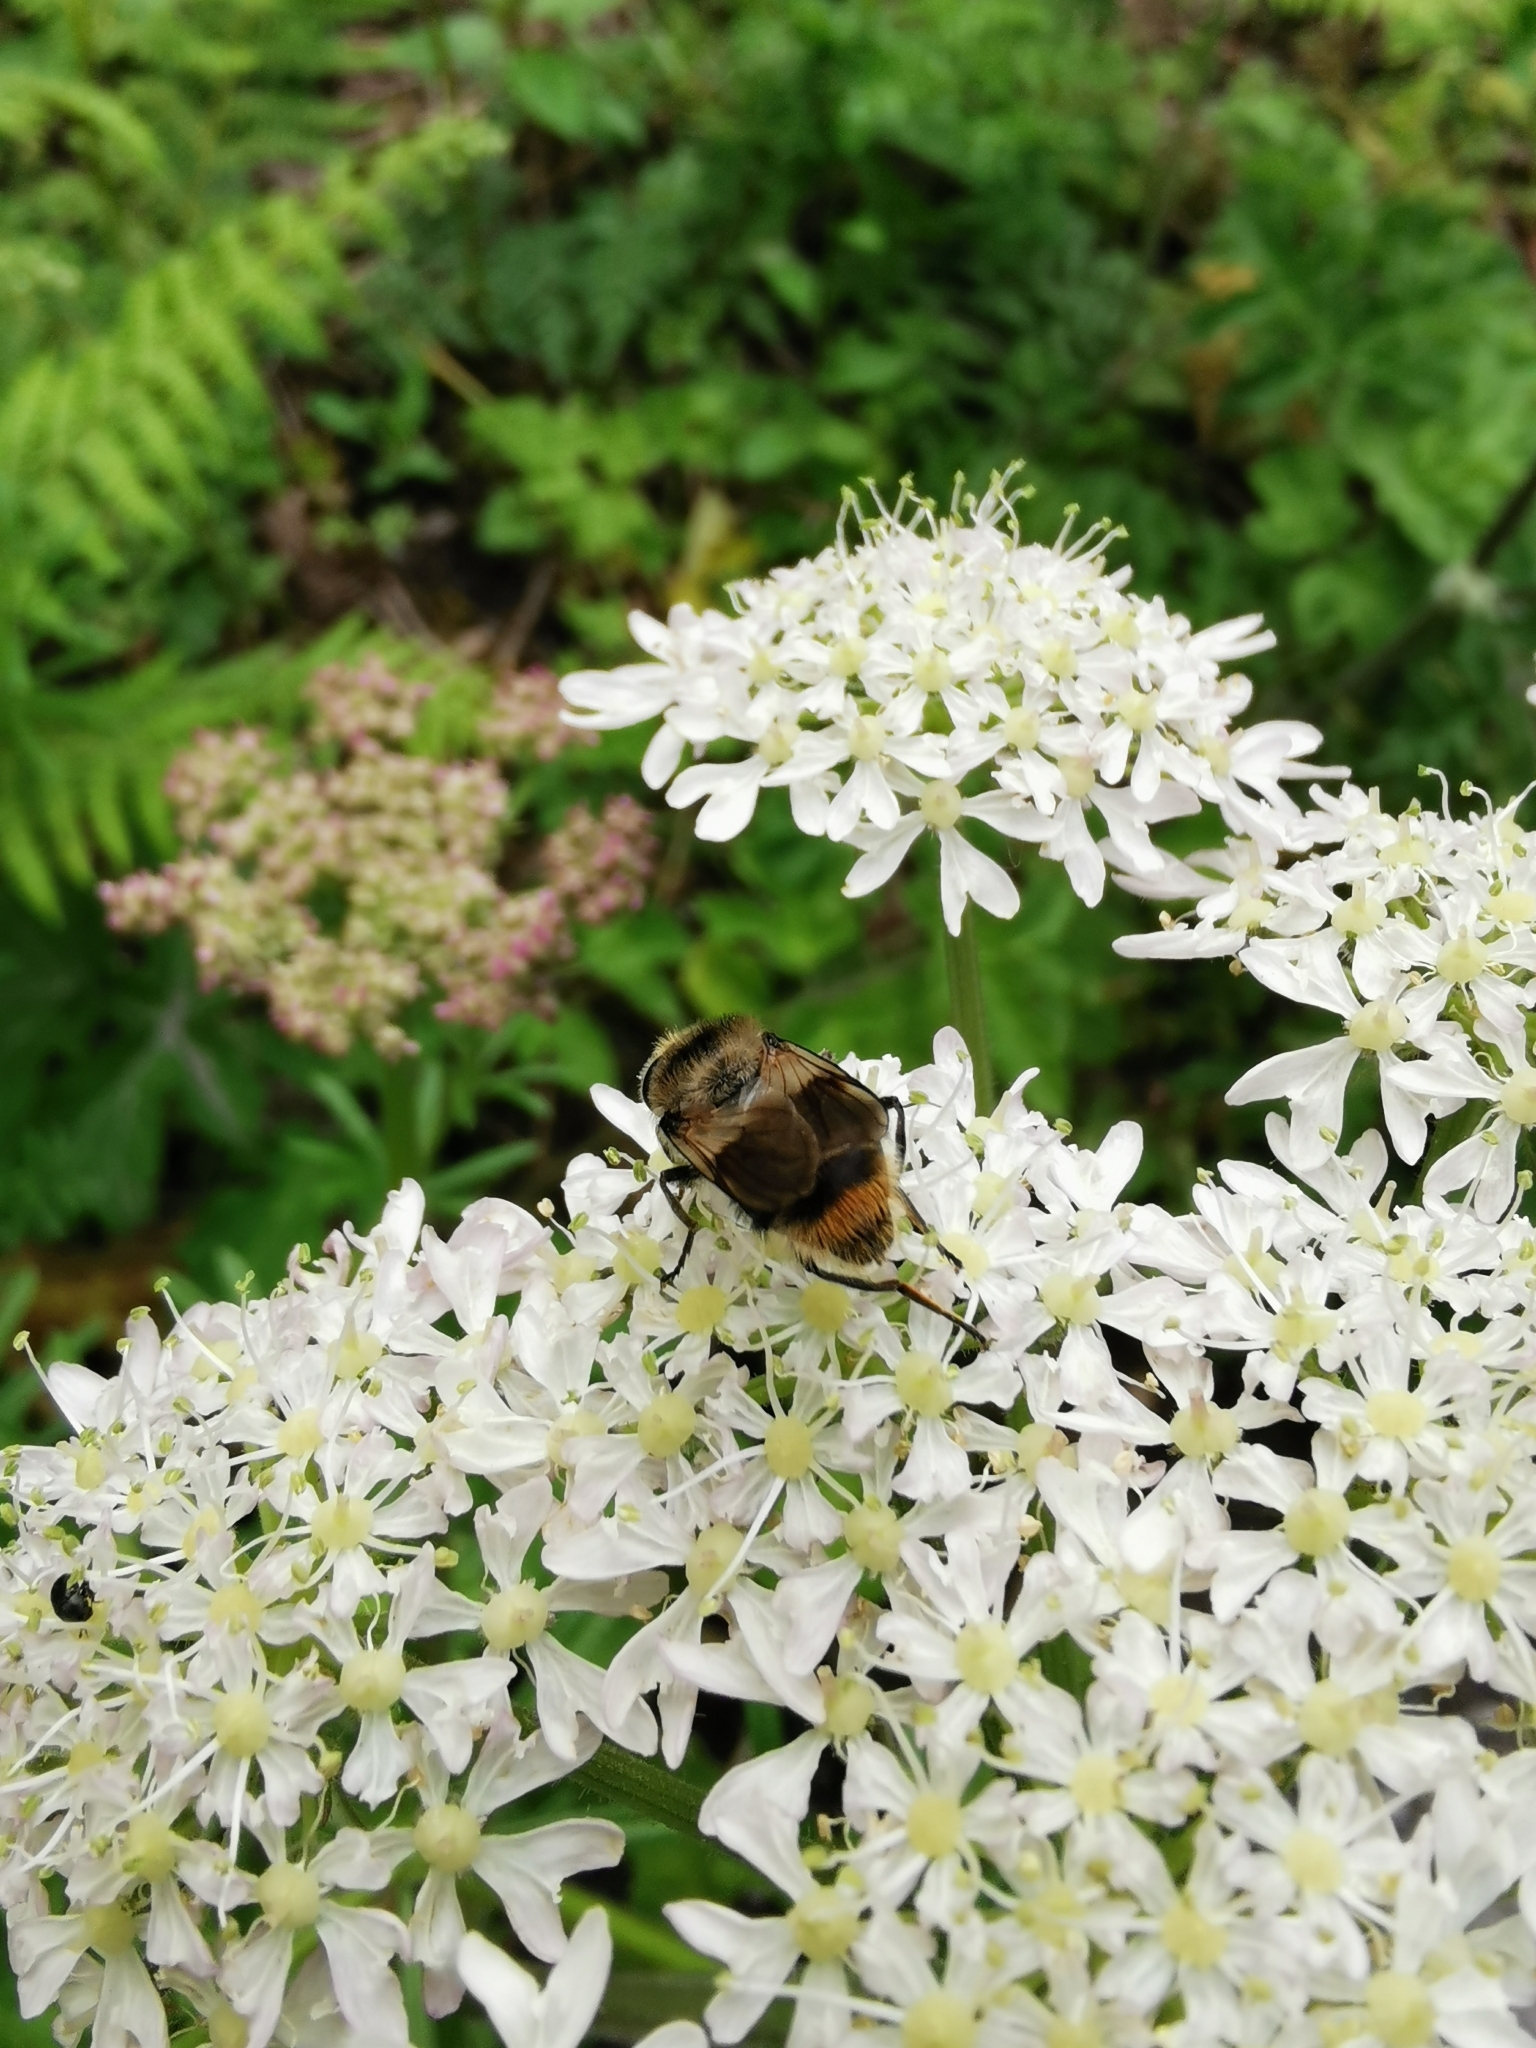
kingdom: Animalia
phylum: Arthropoda
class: Insecta
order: Diptera
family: Syrphidae
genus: Cheilosia
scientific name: Cheilosia illustrata
